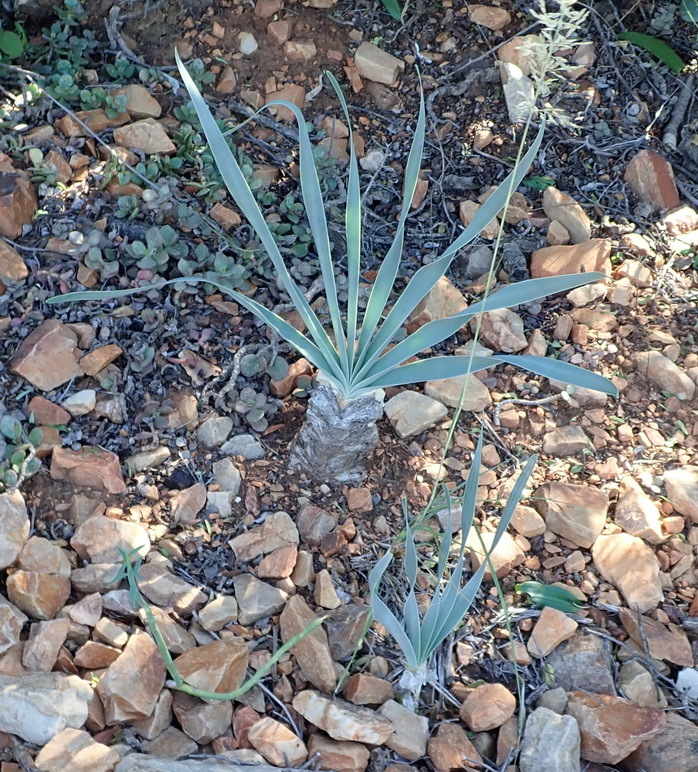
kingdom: Plantae
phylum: Tracheophyta
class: Liliopsida
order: Asparagales
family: Amaryllidaceae
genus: Boophone
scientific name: Boophone disticha
